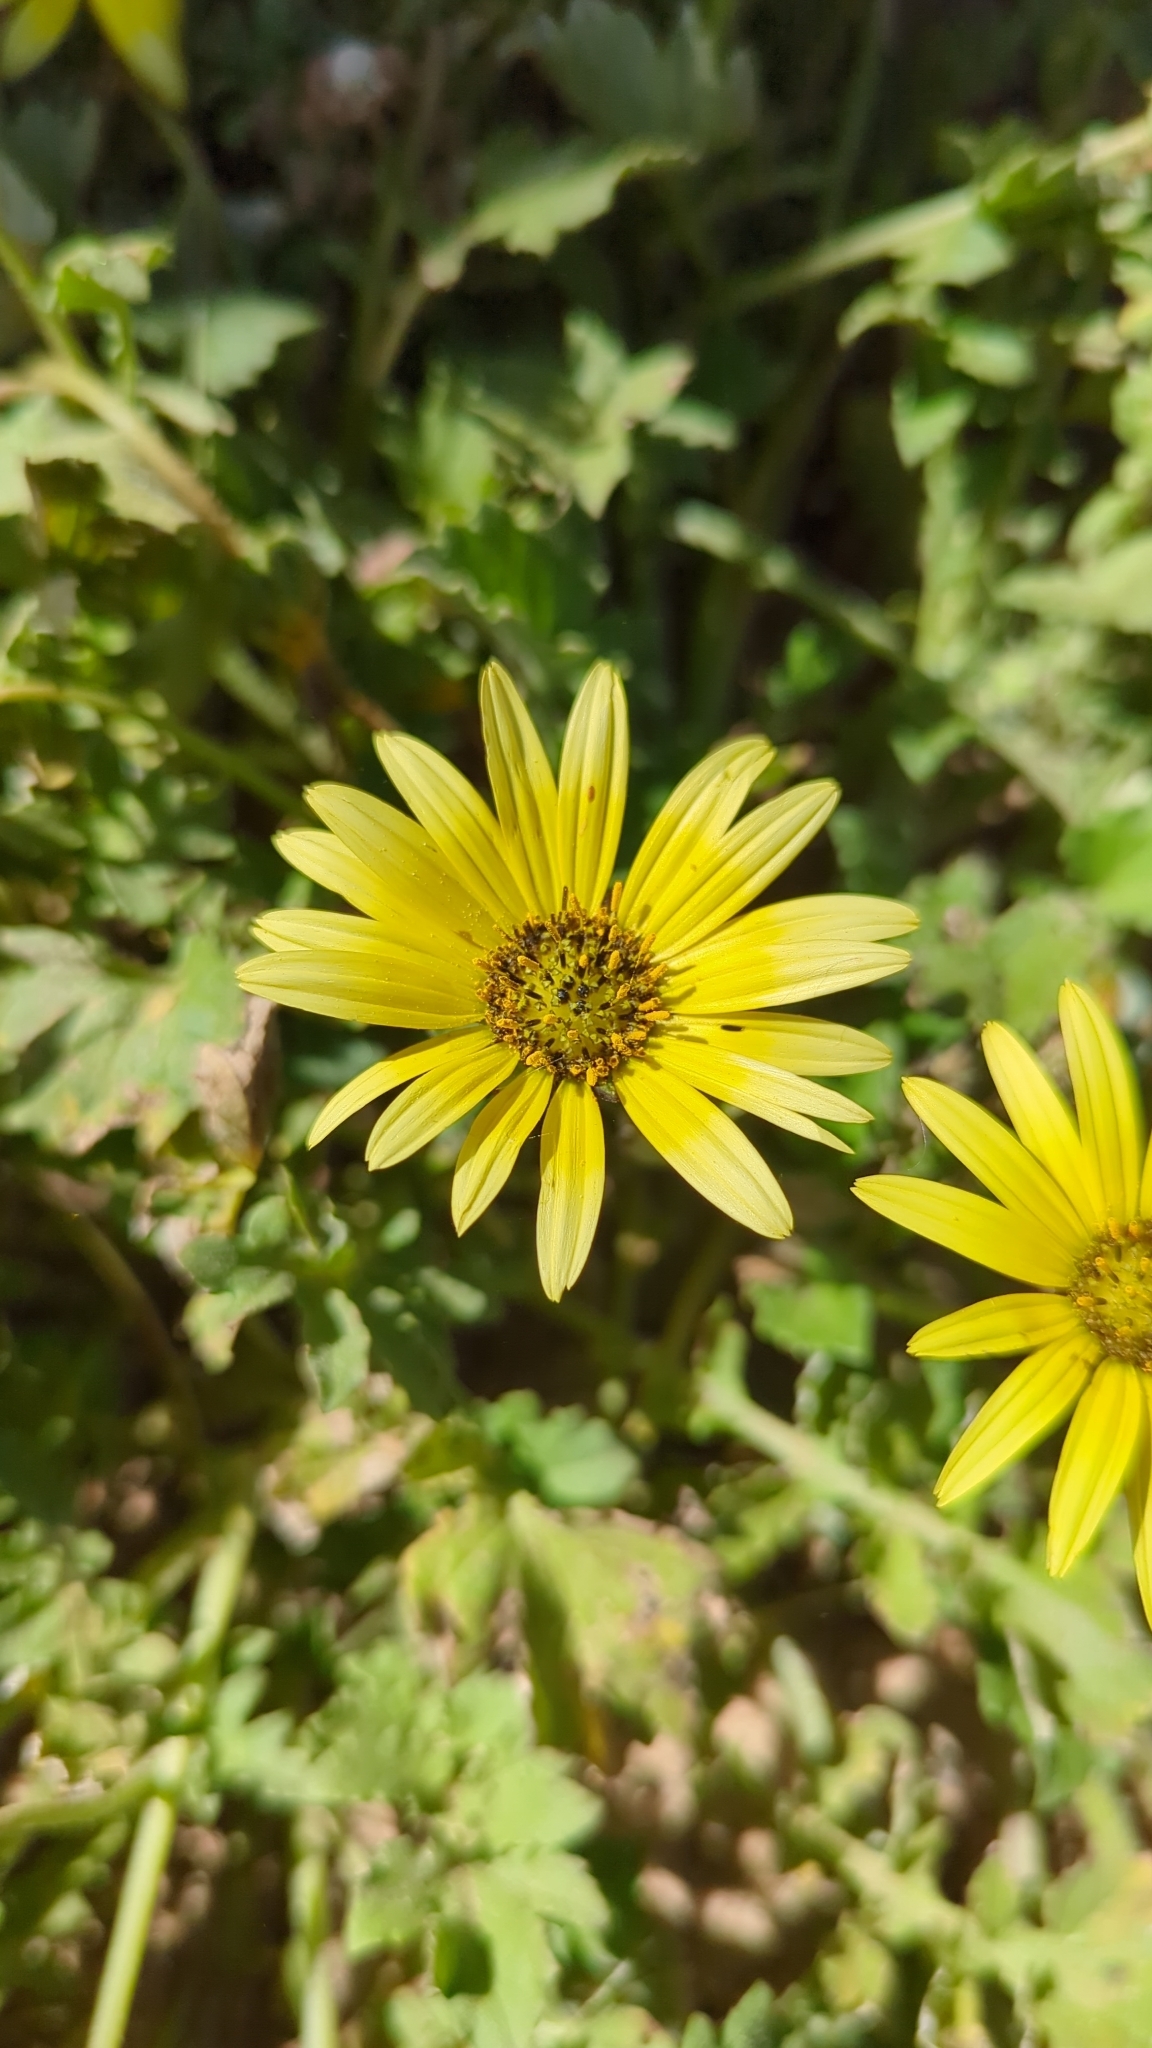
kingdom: Plantae
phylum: Tracheophyta
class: Magnoliopsida
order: Asterales
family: Asteraceae
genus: Arctotheca
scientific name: Arctotheca calendula
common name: Capeweed
